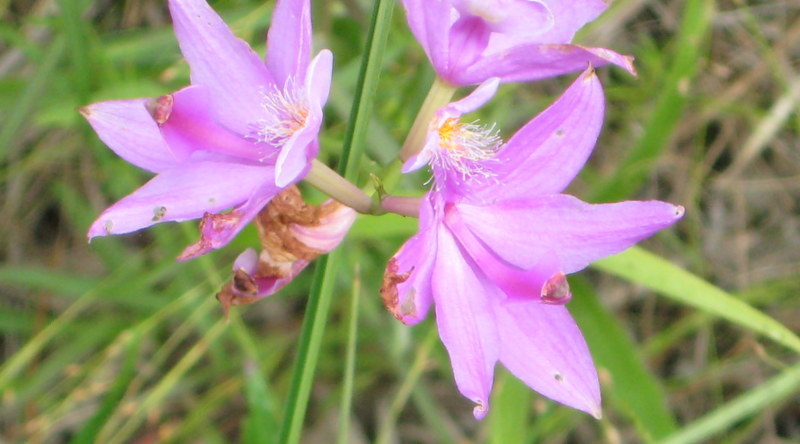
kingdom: Plantae
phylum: Tracheophyta
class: Liliopsida
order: Asparagales
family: Orchidaceae
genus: Calopogon
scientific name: Calopogon tuberosus
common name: Grass-pink
